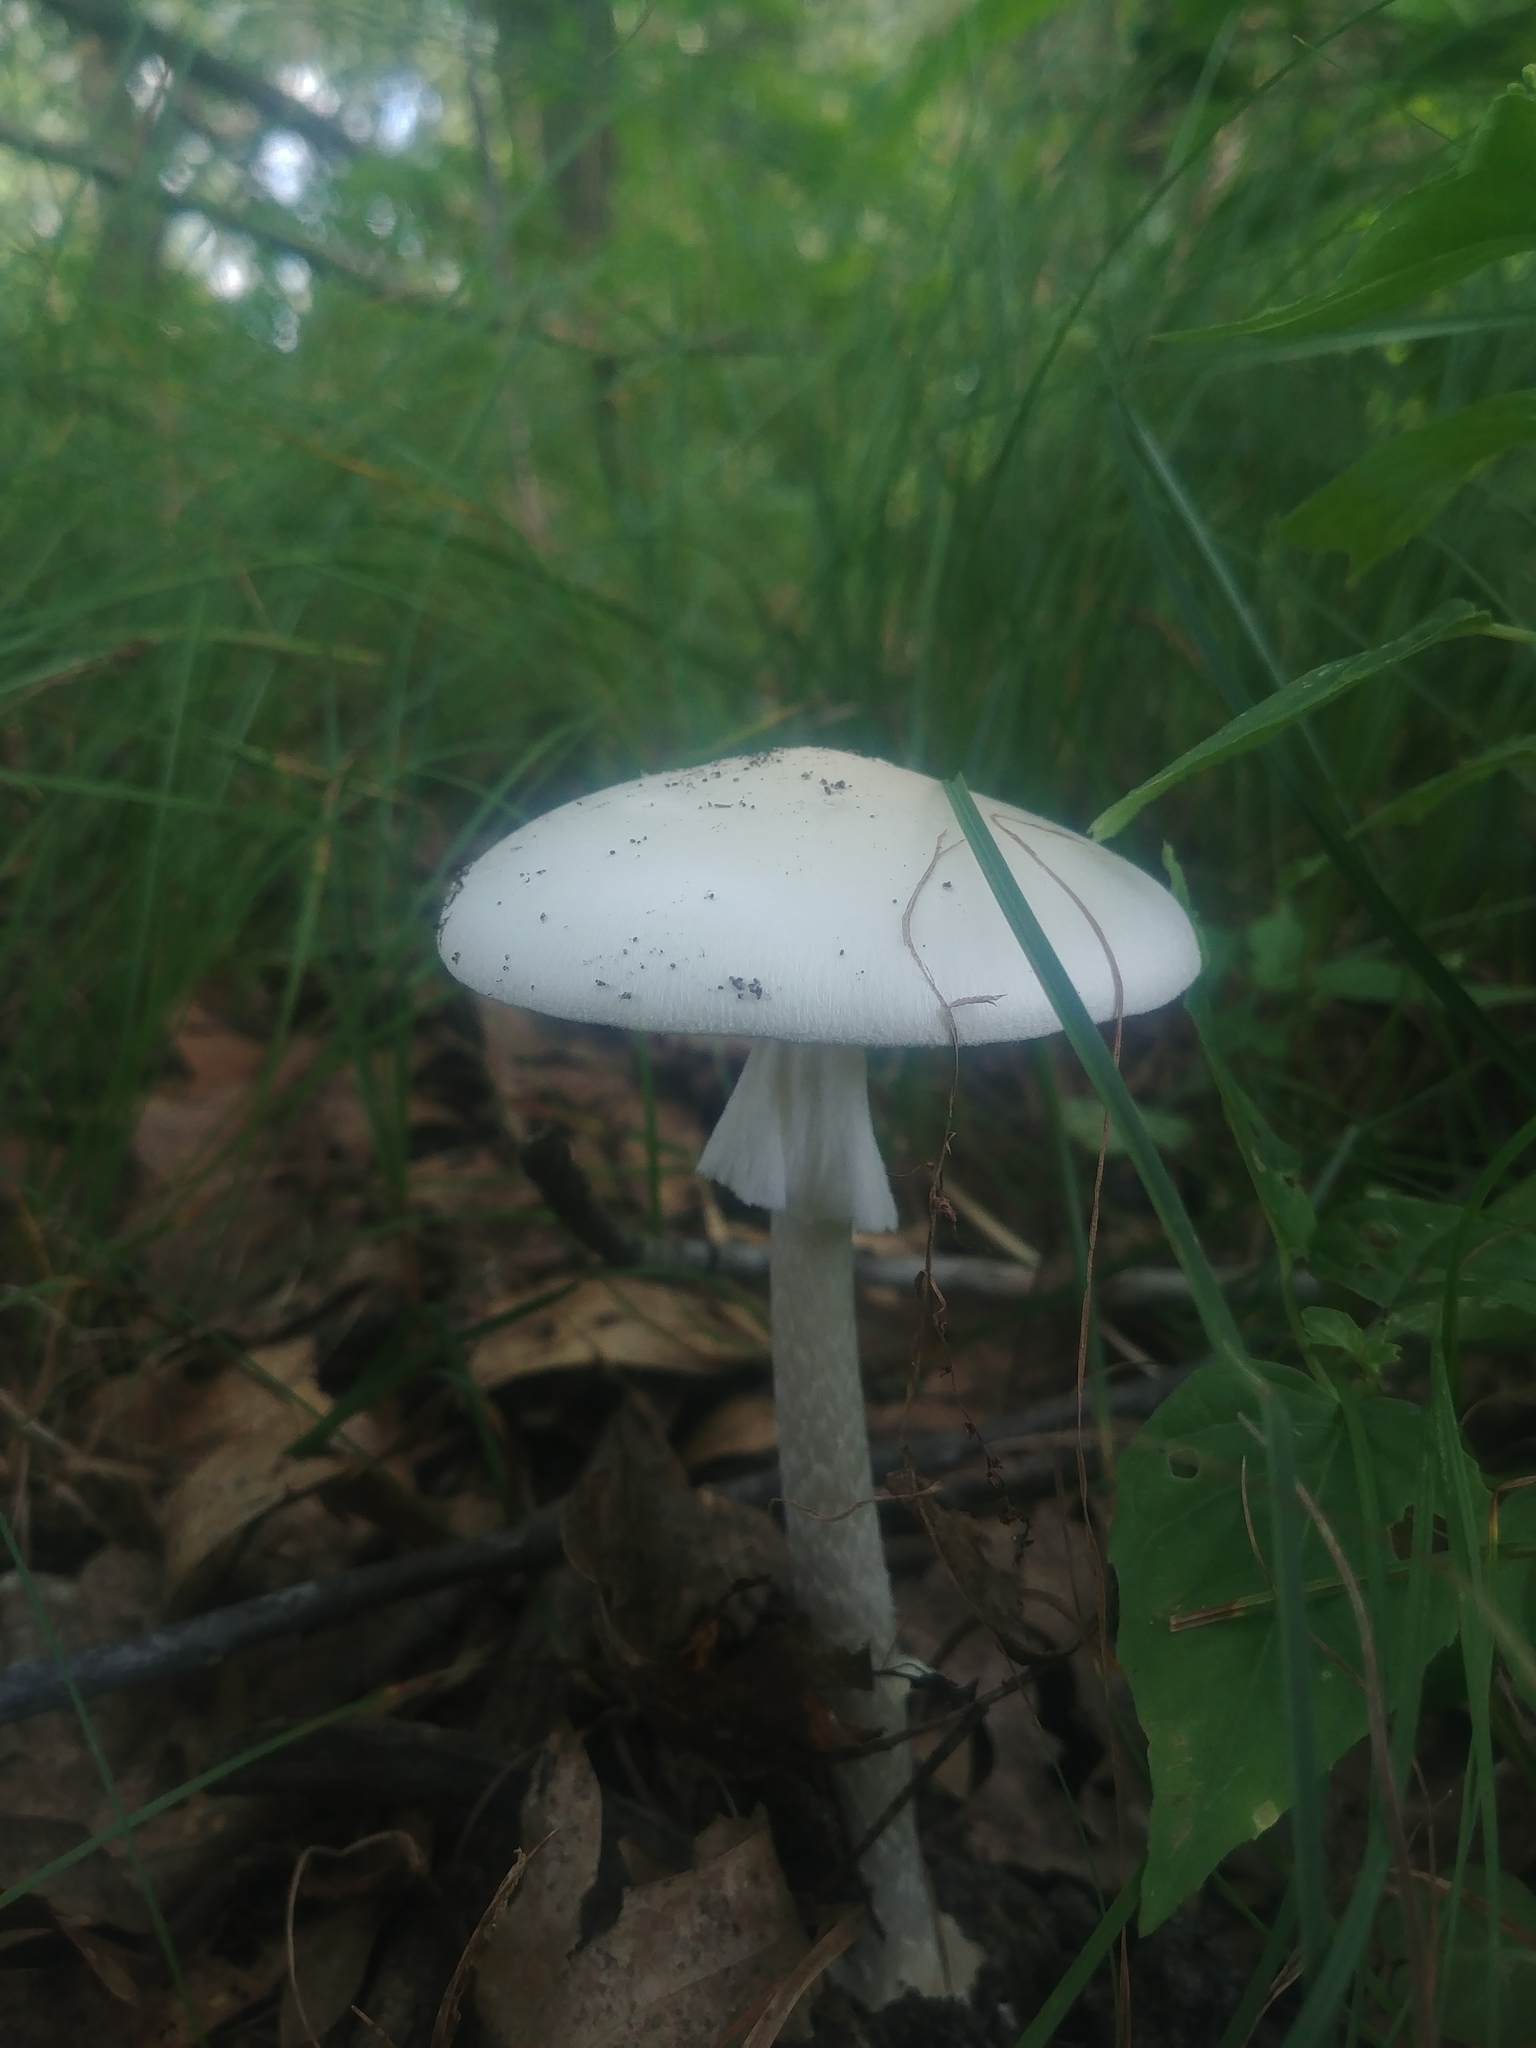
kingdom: Fungi
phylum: Basidiomycota
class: Agaricomycetes
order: Agaricales
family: Amanitaceae
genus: Amanita
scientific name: Amanita bisporigera
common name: Eastern north american destroying angel
